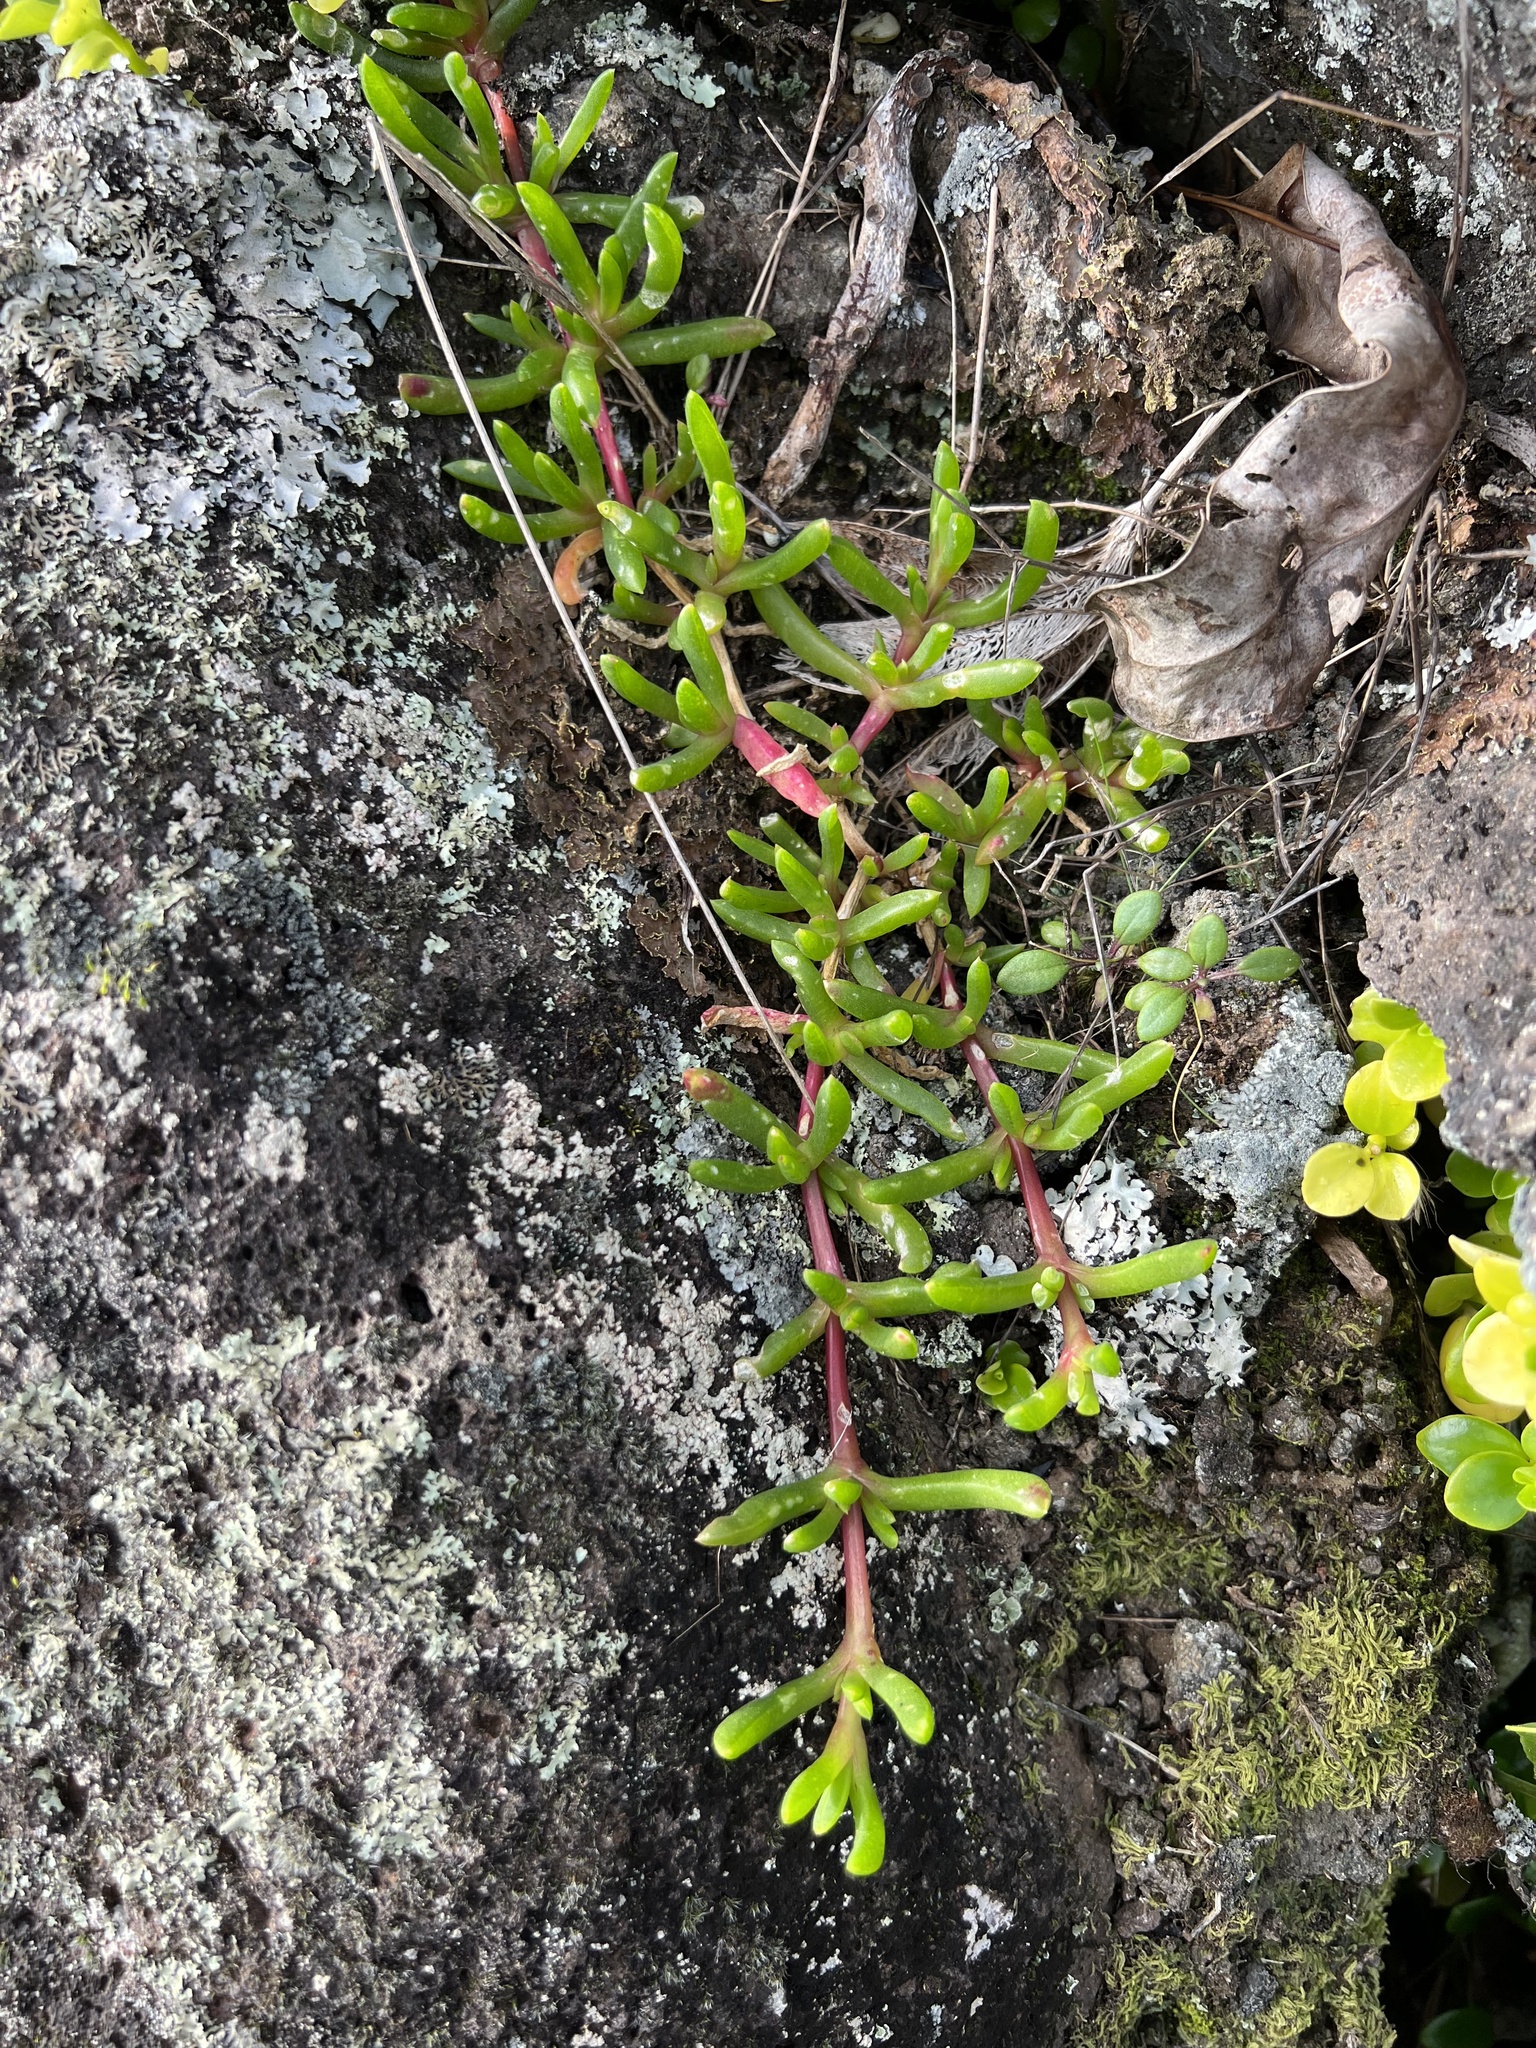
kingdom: Plantae
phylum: Tracheophyta
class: Magnoliopsida
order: Caryophyllales
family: Aizoaceae
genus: Disphyma
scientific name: Disphyma australe
